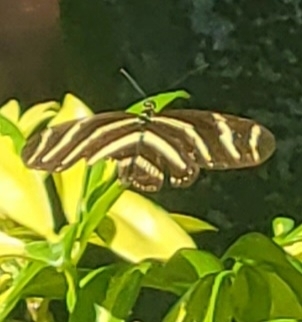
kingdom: Animalia
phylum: Arthropoda
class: Insecta
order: Lepidoptera
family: Nymphalidae
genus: Heliconius
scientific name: Heliconius charithonia
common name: Zebra long wing
